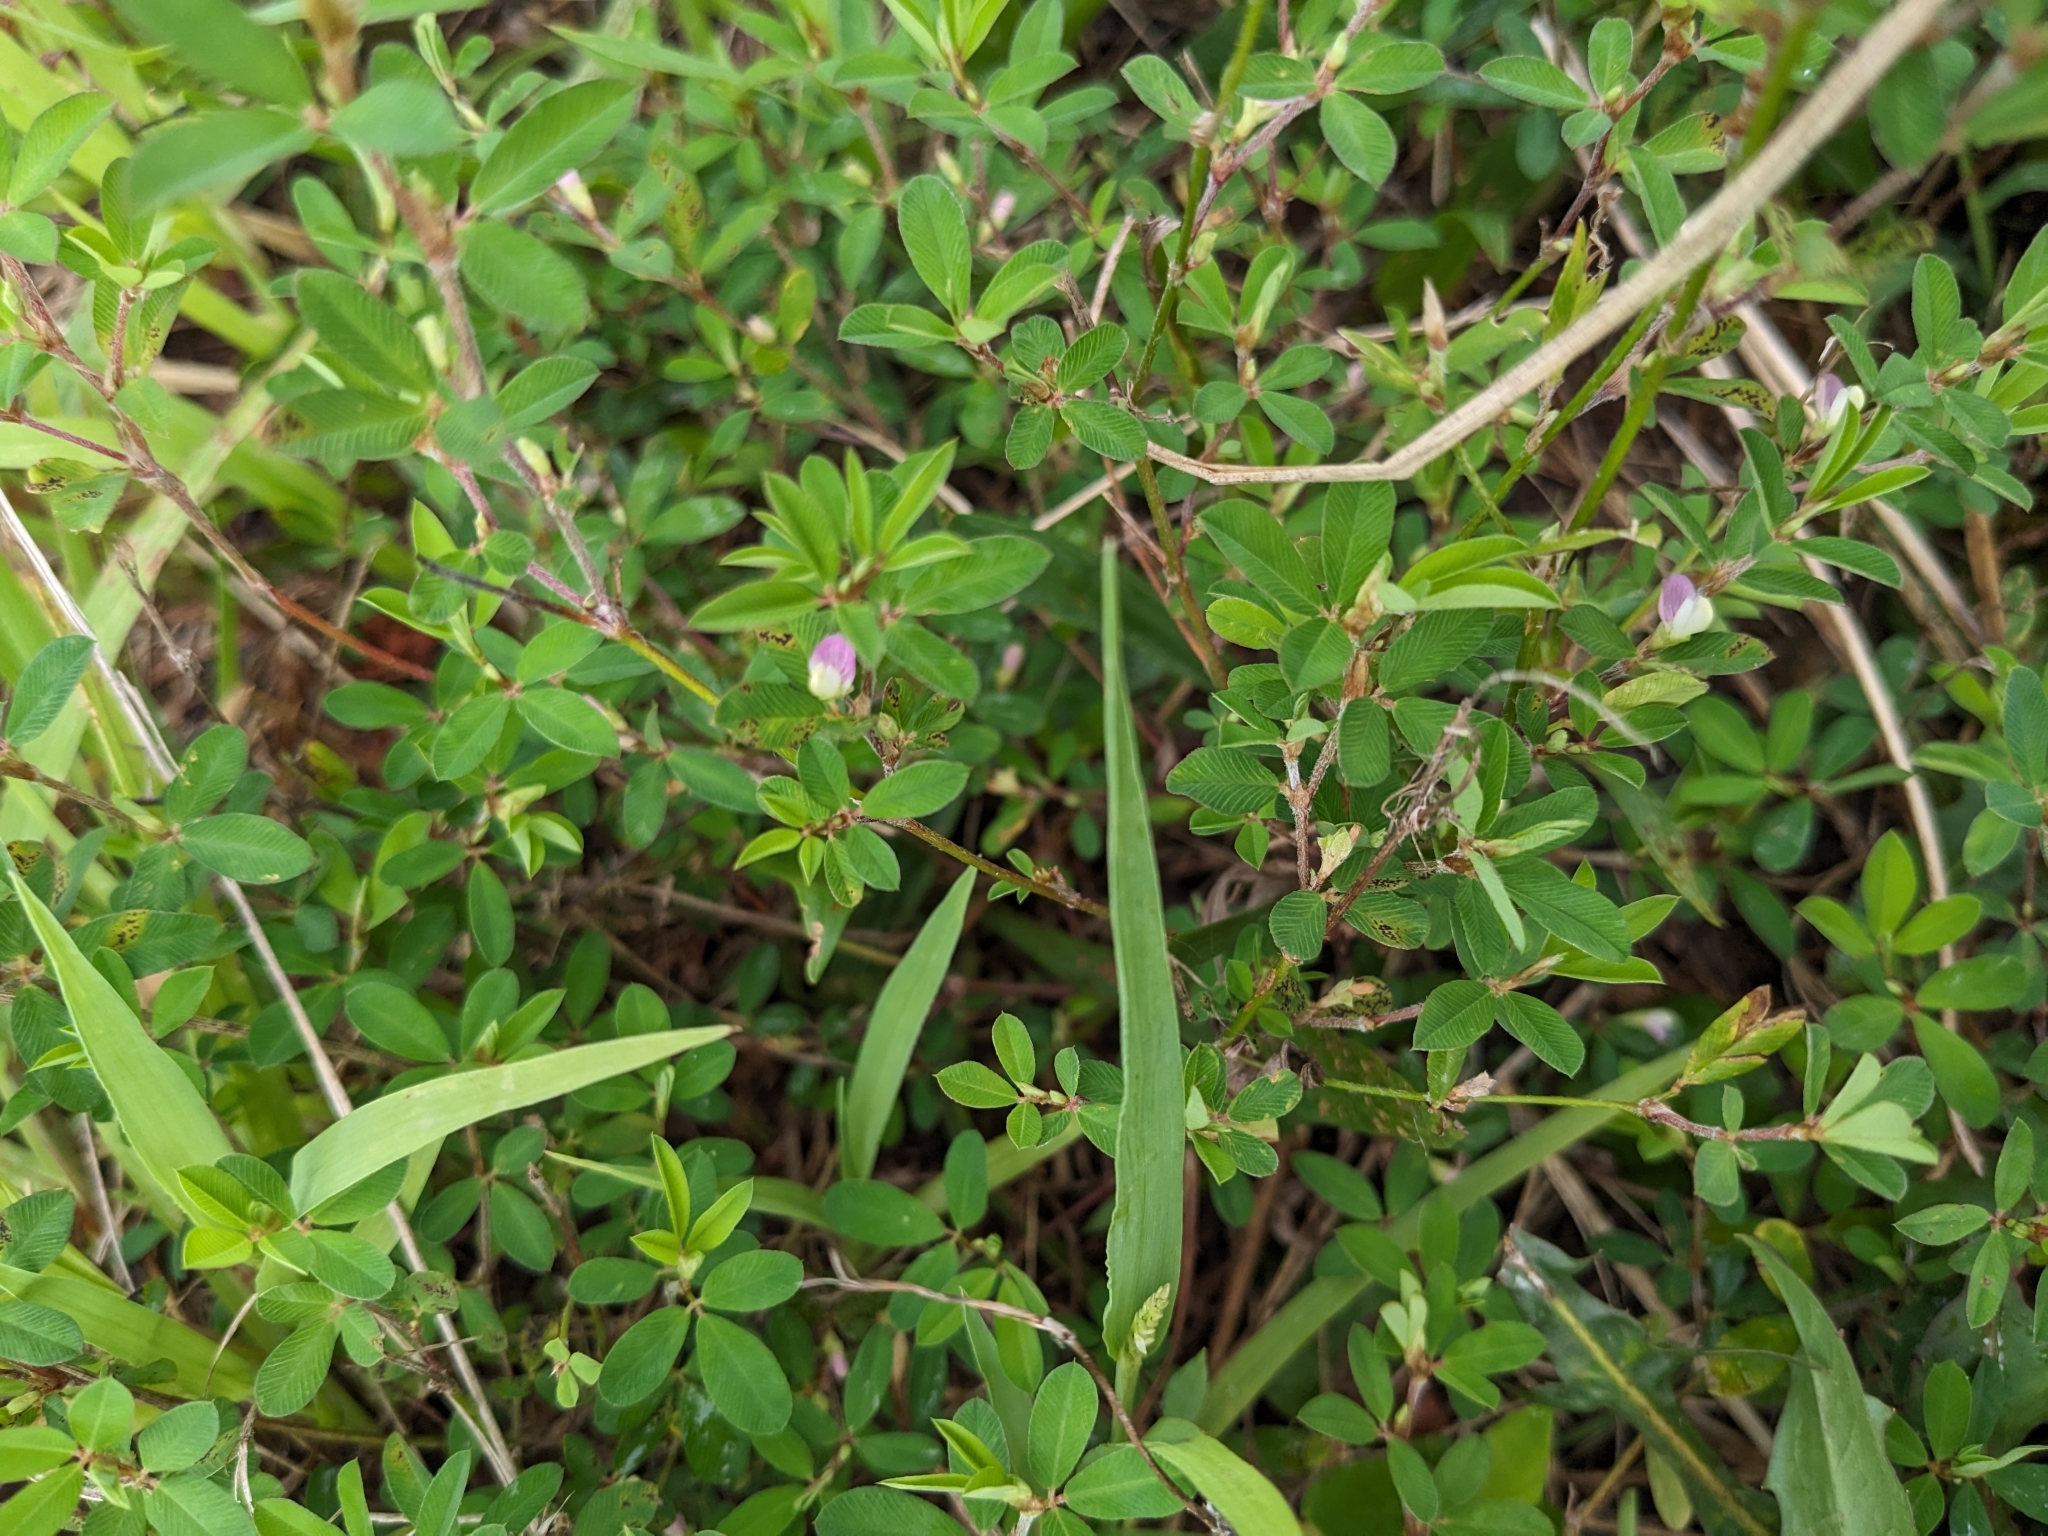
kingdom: Plantae
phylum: Tracheophyta
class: Magnoliopsida
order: Fabales
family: Fabaceae
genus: Kummerowia
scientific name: Kummerowia striata
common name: Japanese clover
